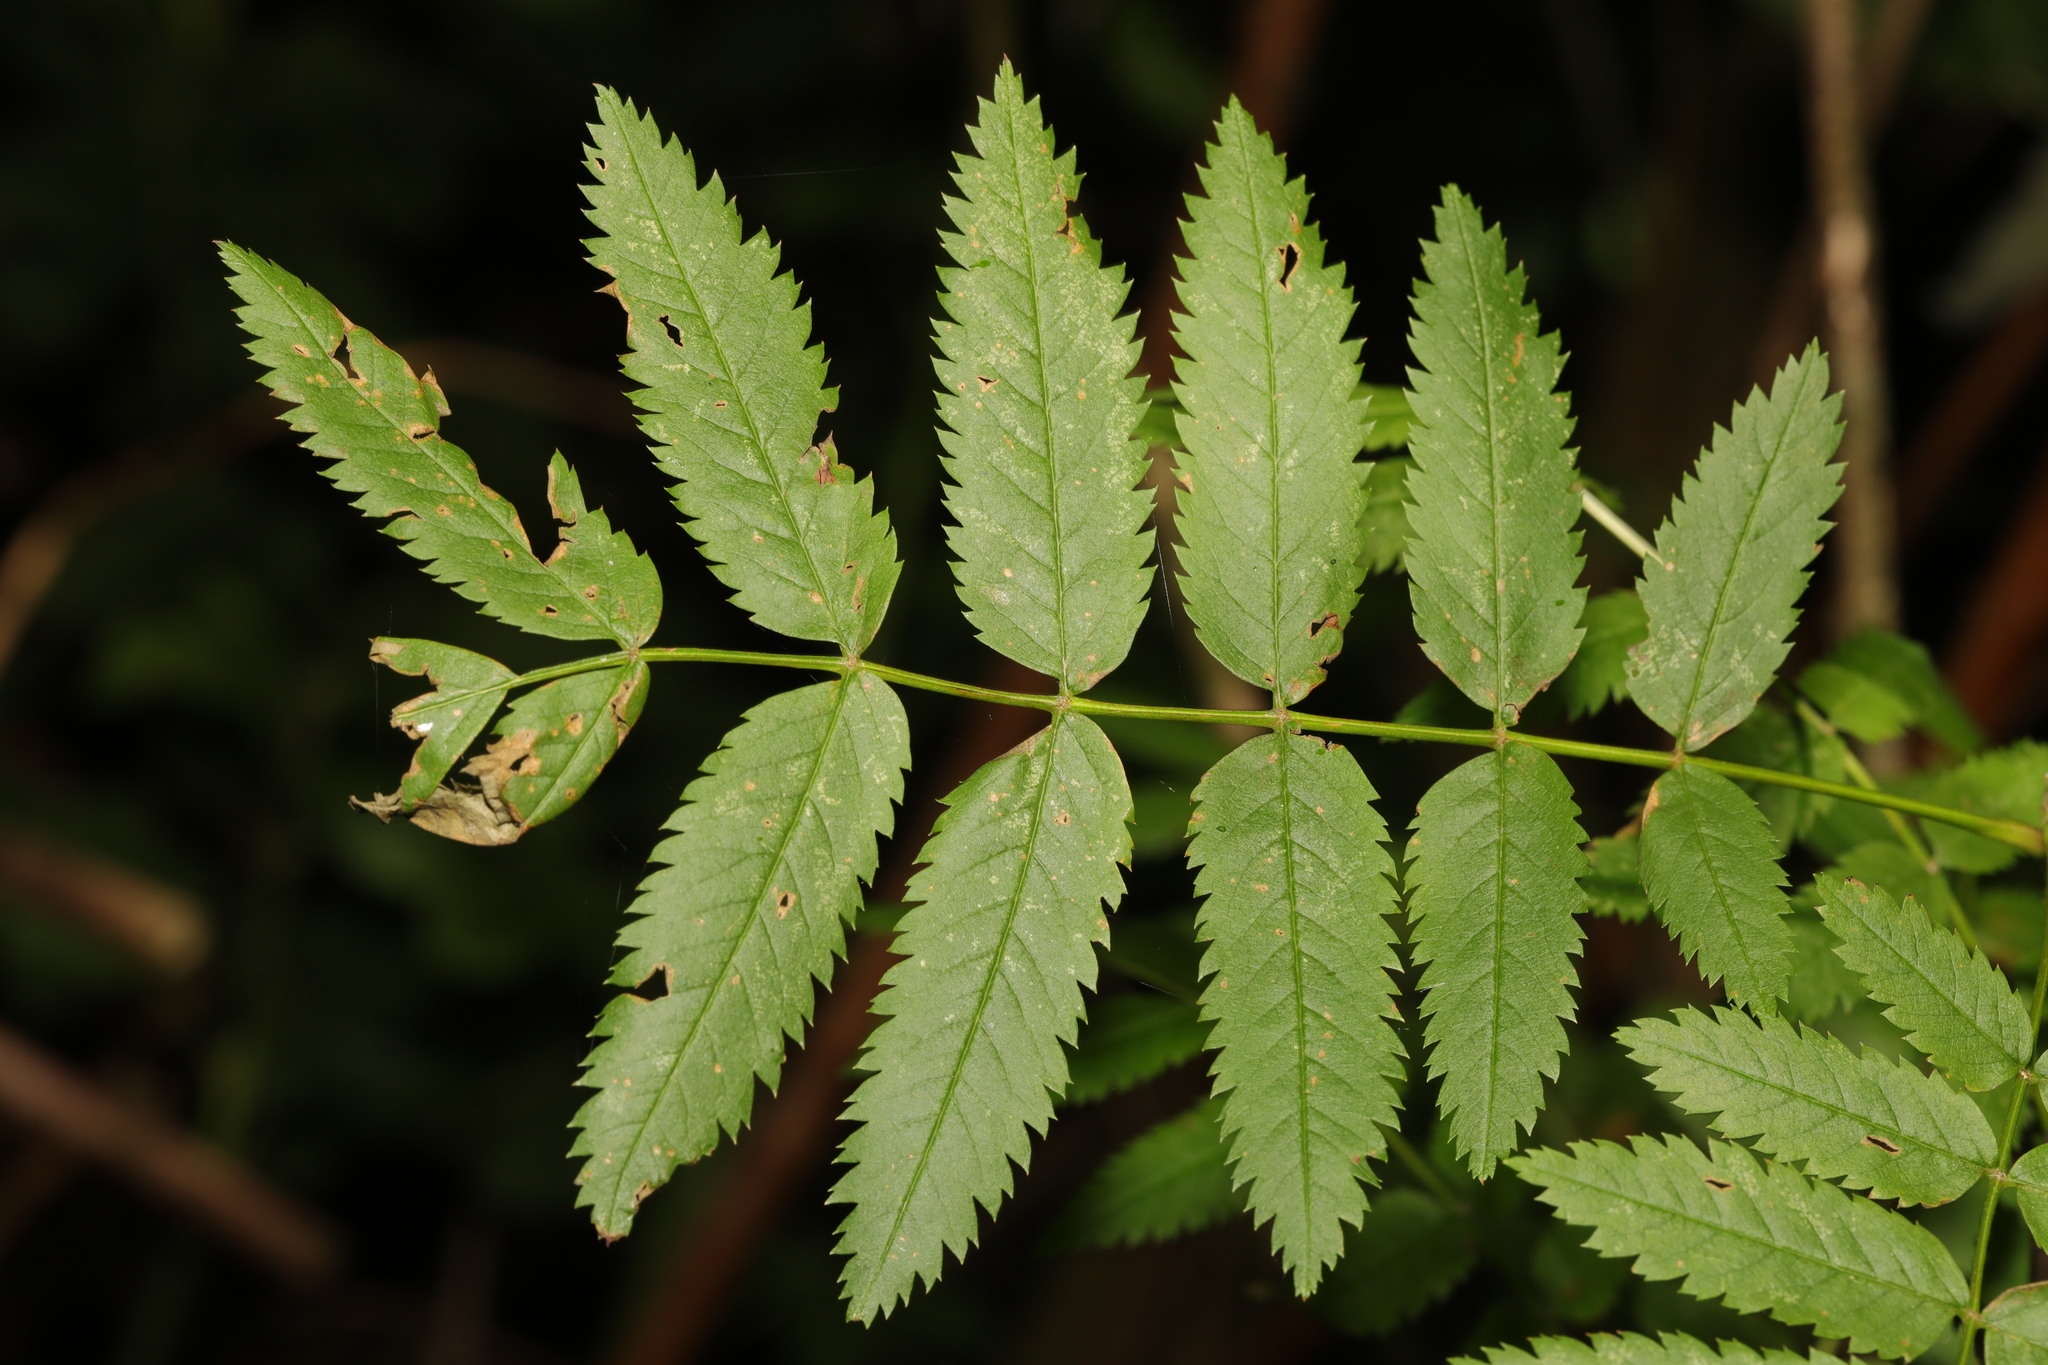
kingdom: Plantae
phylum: Tracheophyta
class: Magnoliopsida
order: Rosales
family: Rosaceae
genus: Sorbus
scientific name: Sorbus aucuparia
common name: Rowan
